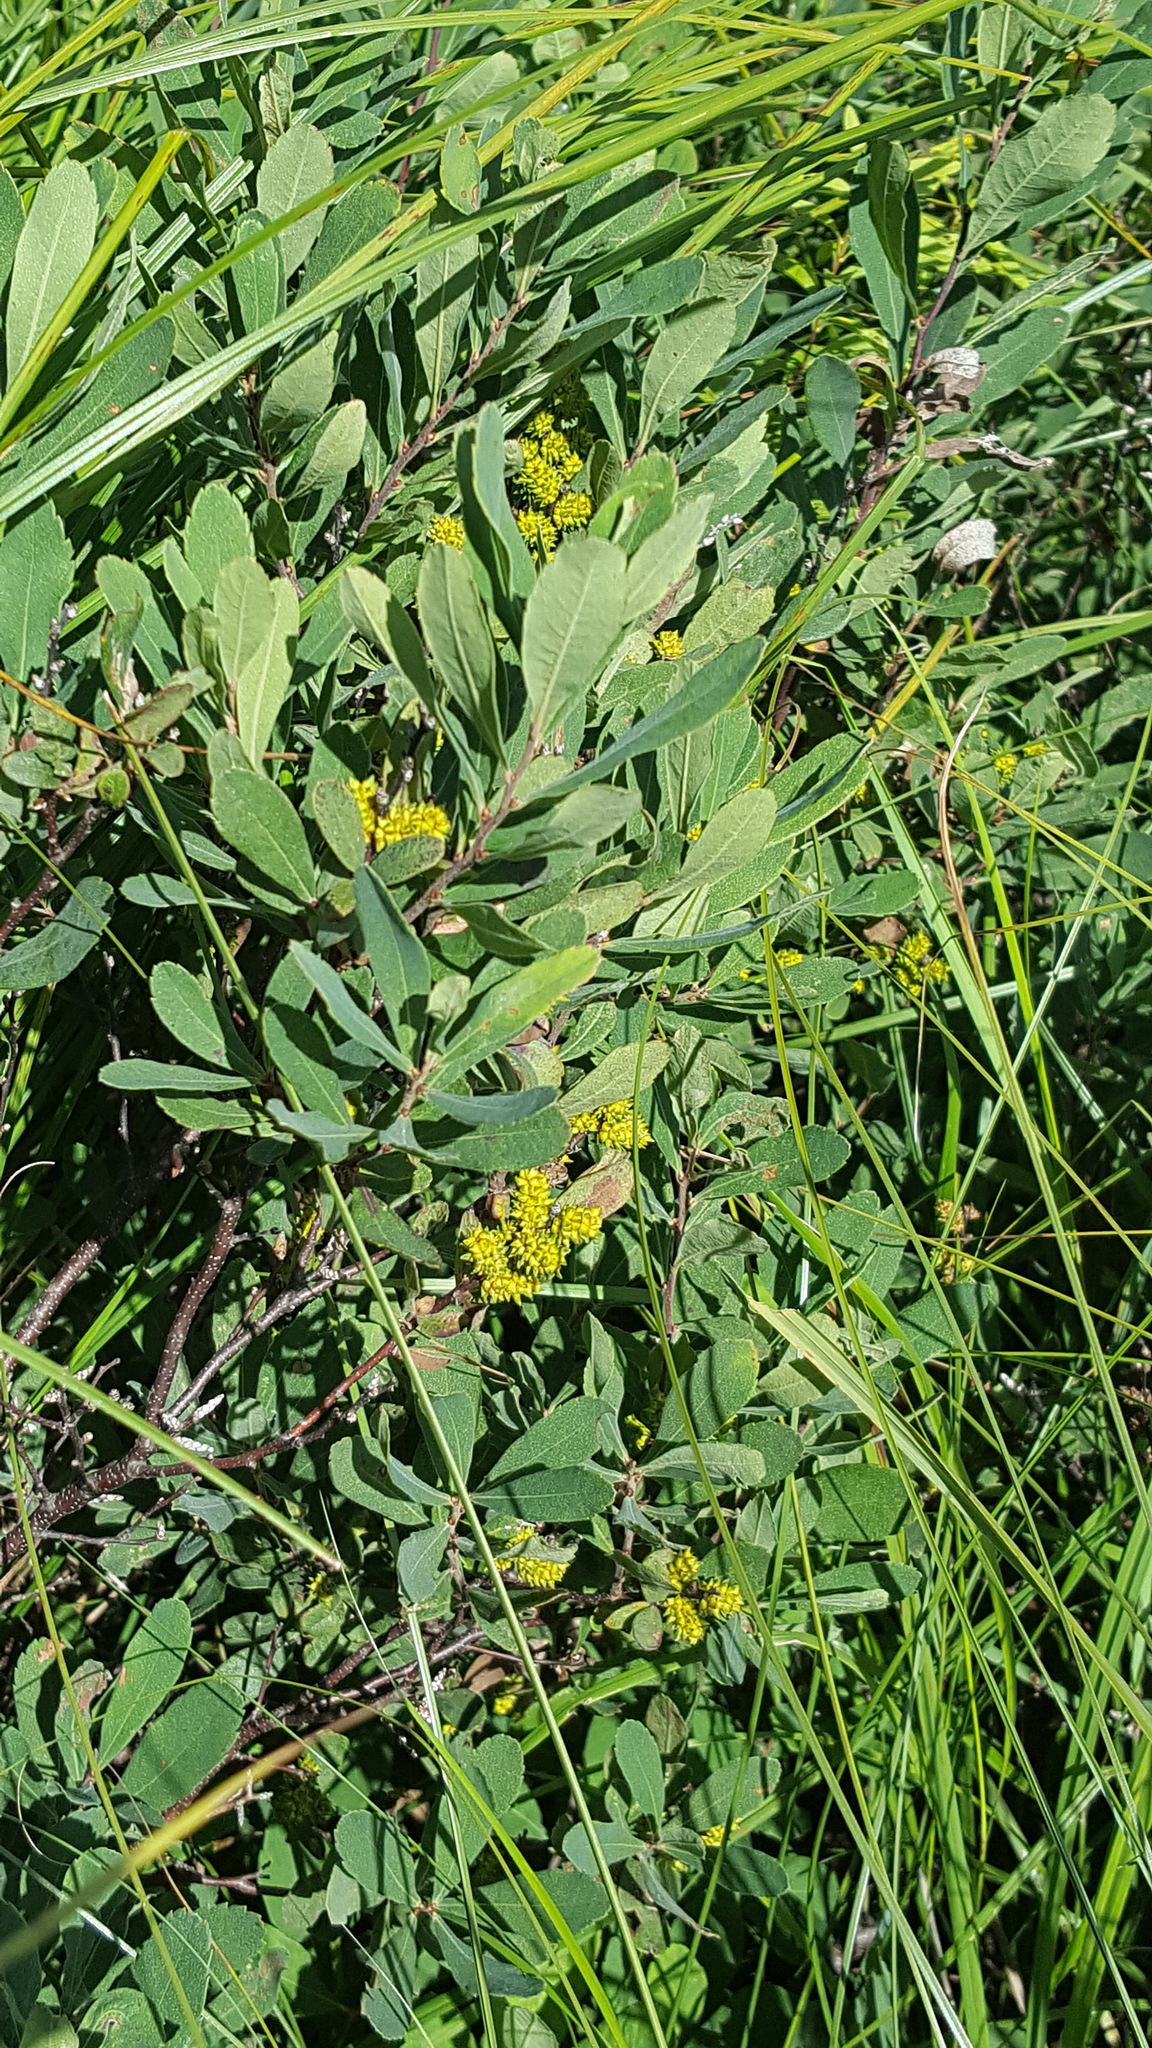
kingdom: Plantae
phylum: Tracheophyta
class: Magnoliopsida
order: Fagales
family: Myricaceae
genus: Myrica
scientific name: Myrica gale
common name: Sweet gale
